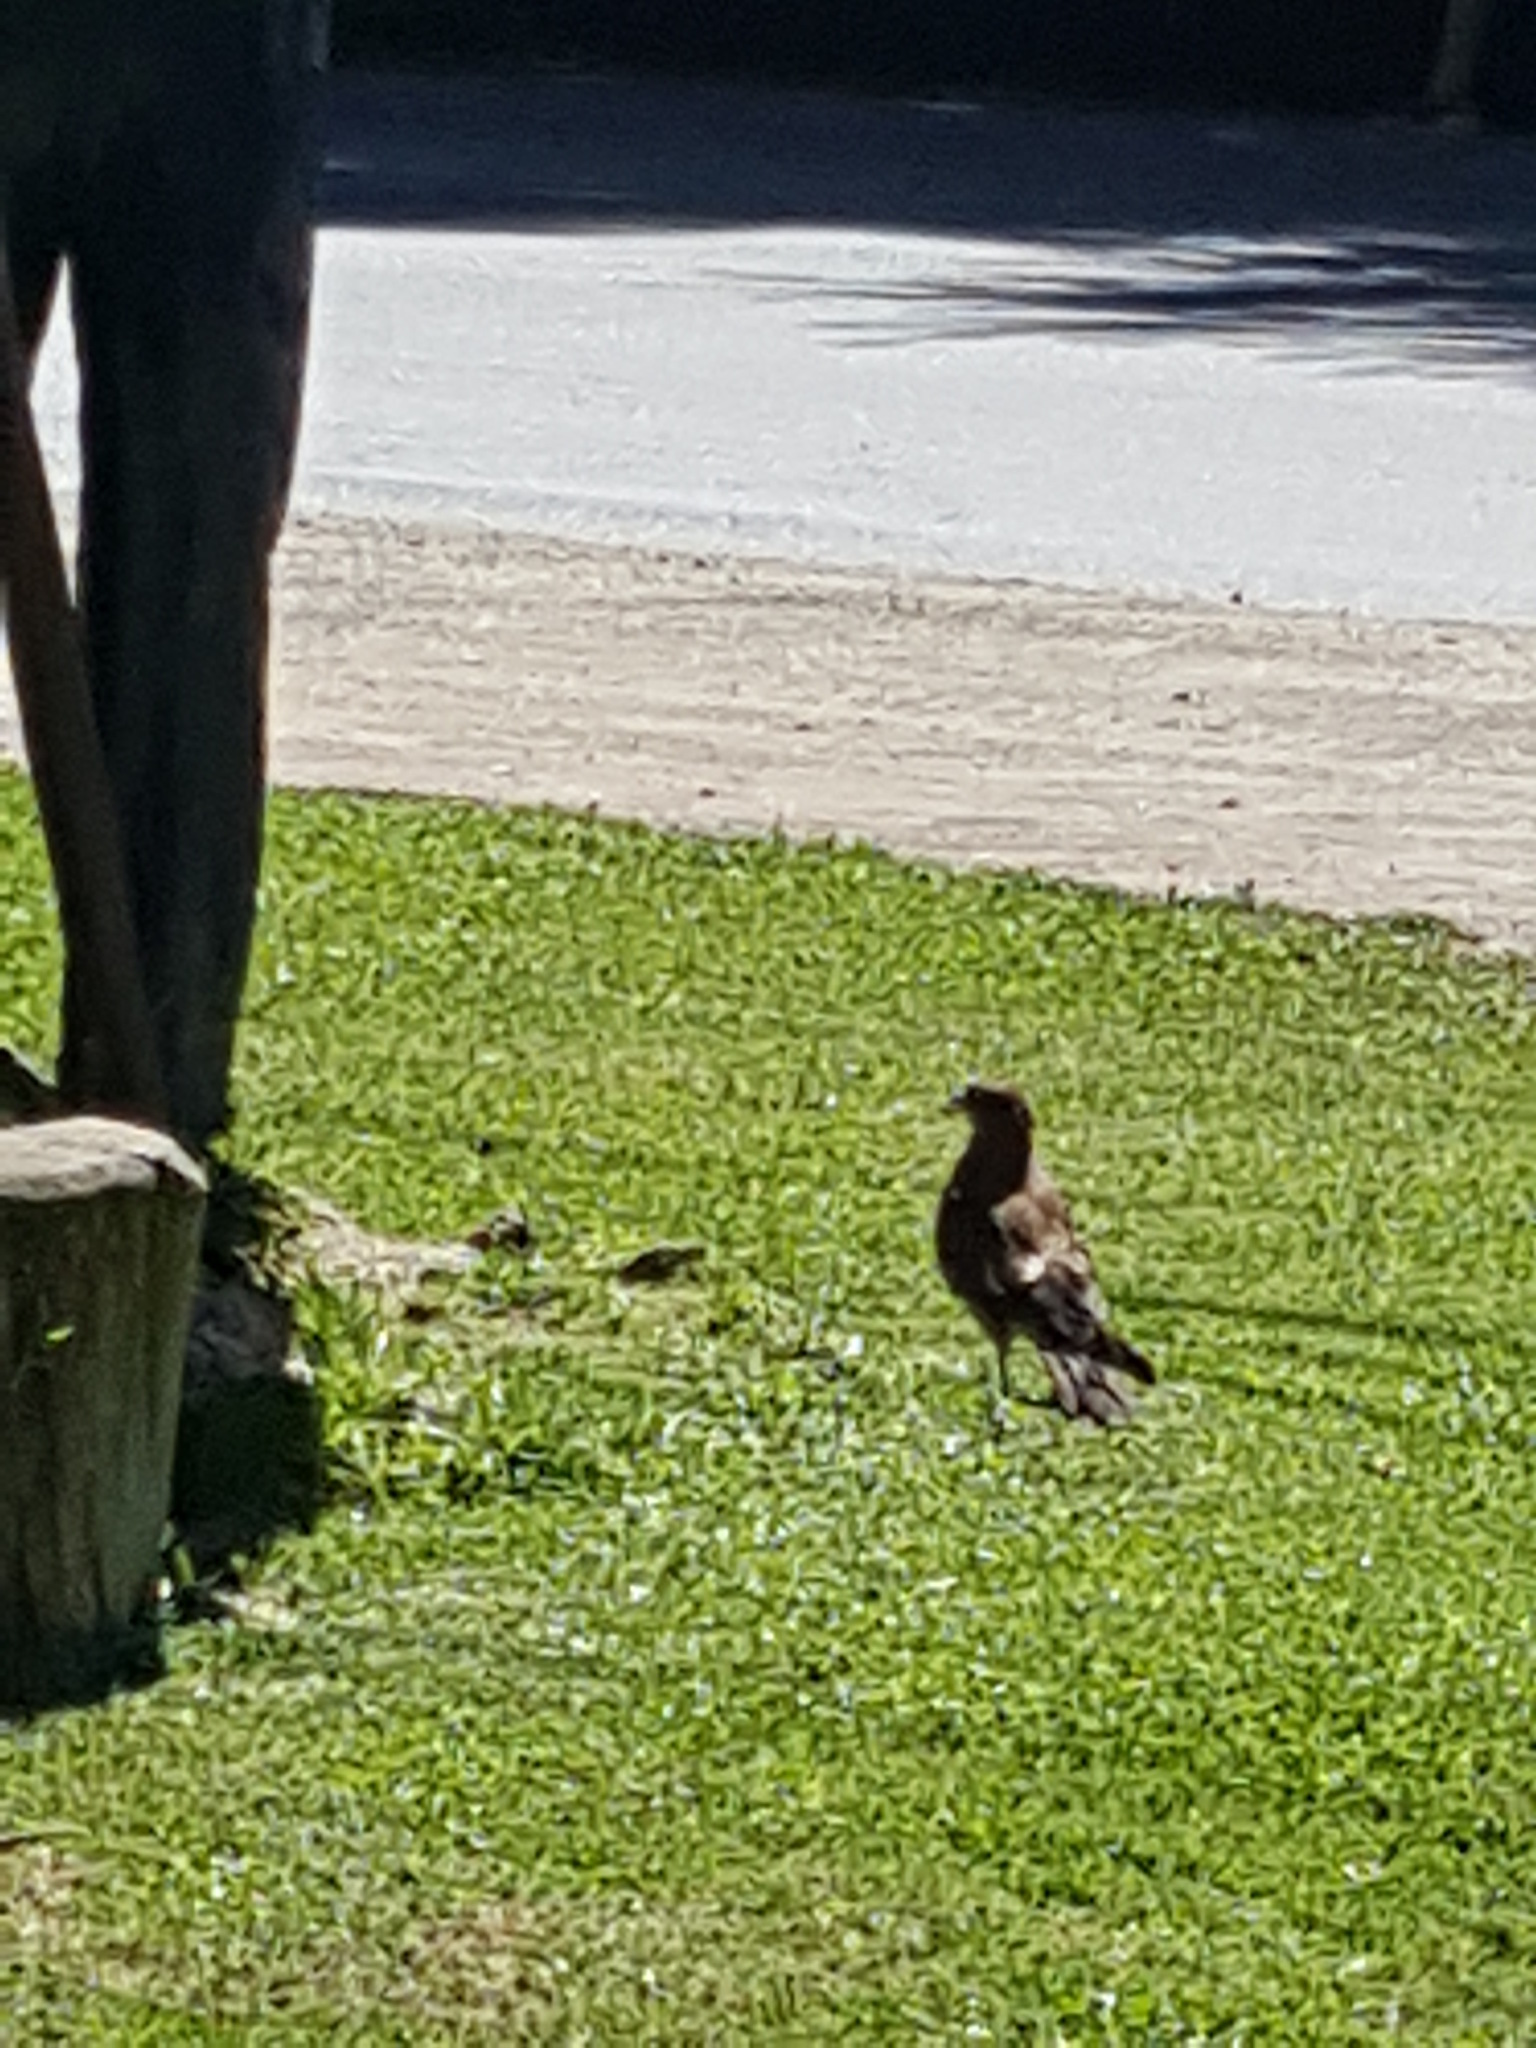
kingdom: Animalia
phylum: Chordata
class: Aves
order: Falconiformes
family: Falconidae
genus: Daptrius
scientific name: Daptrius
